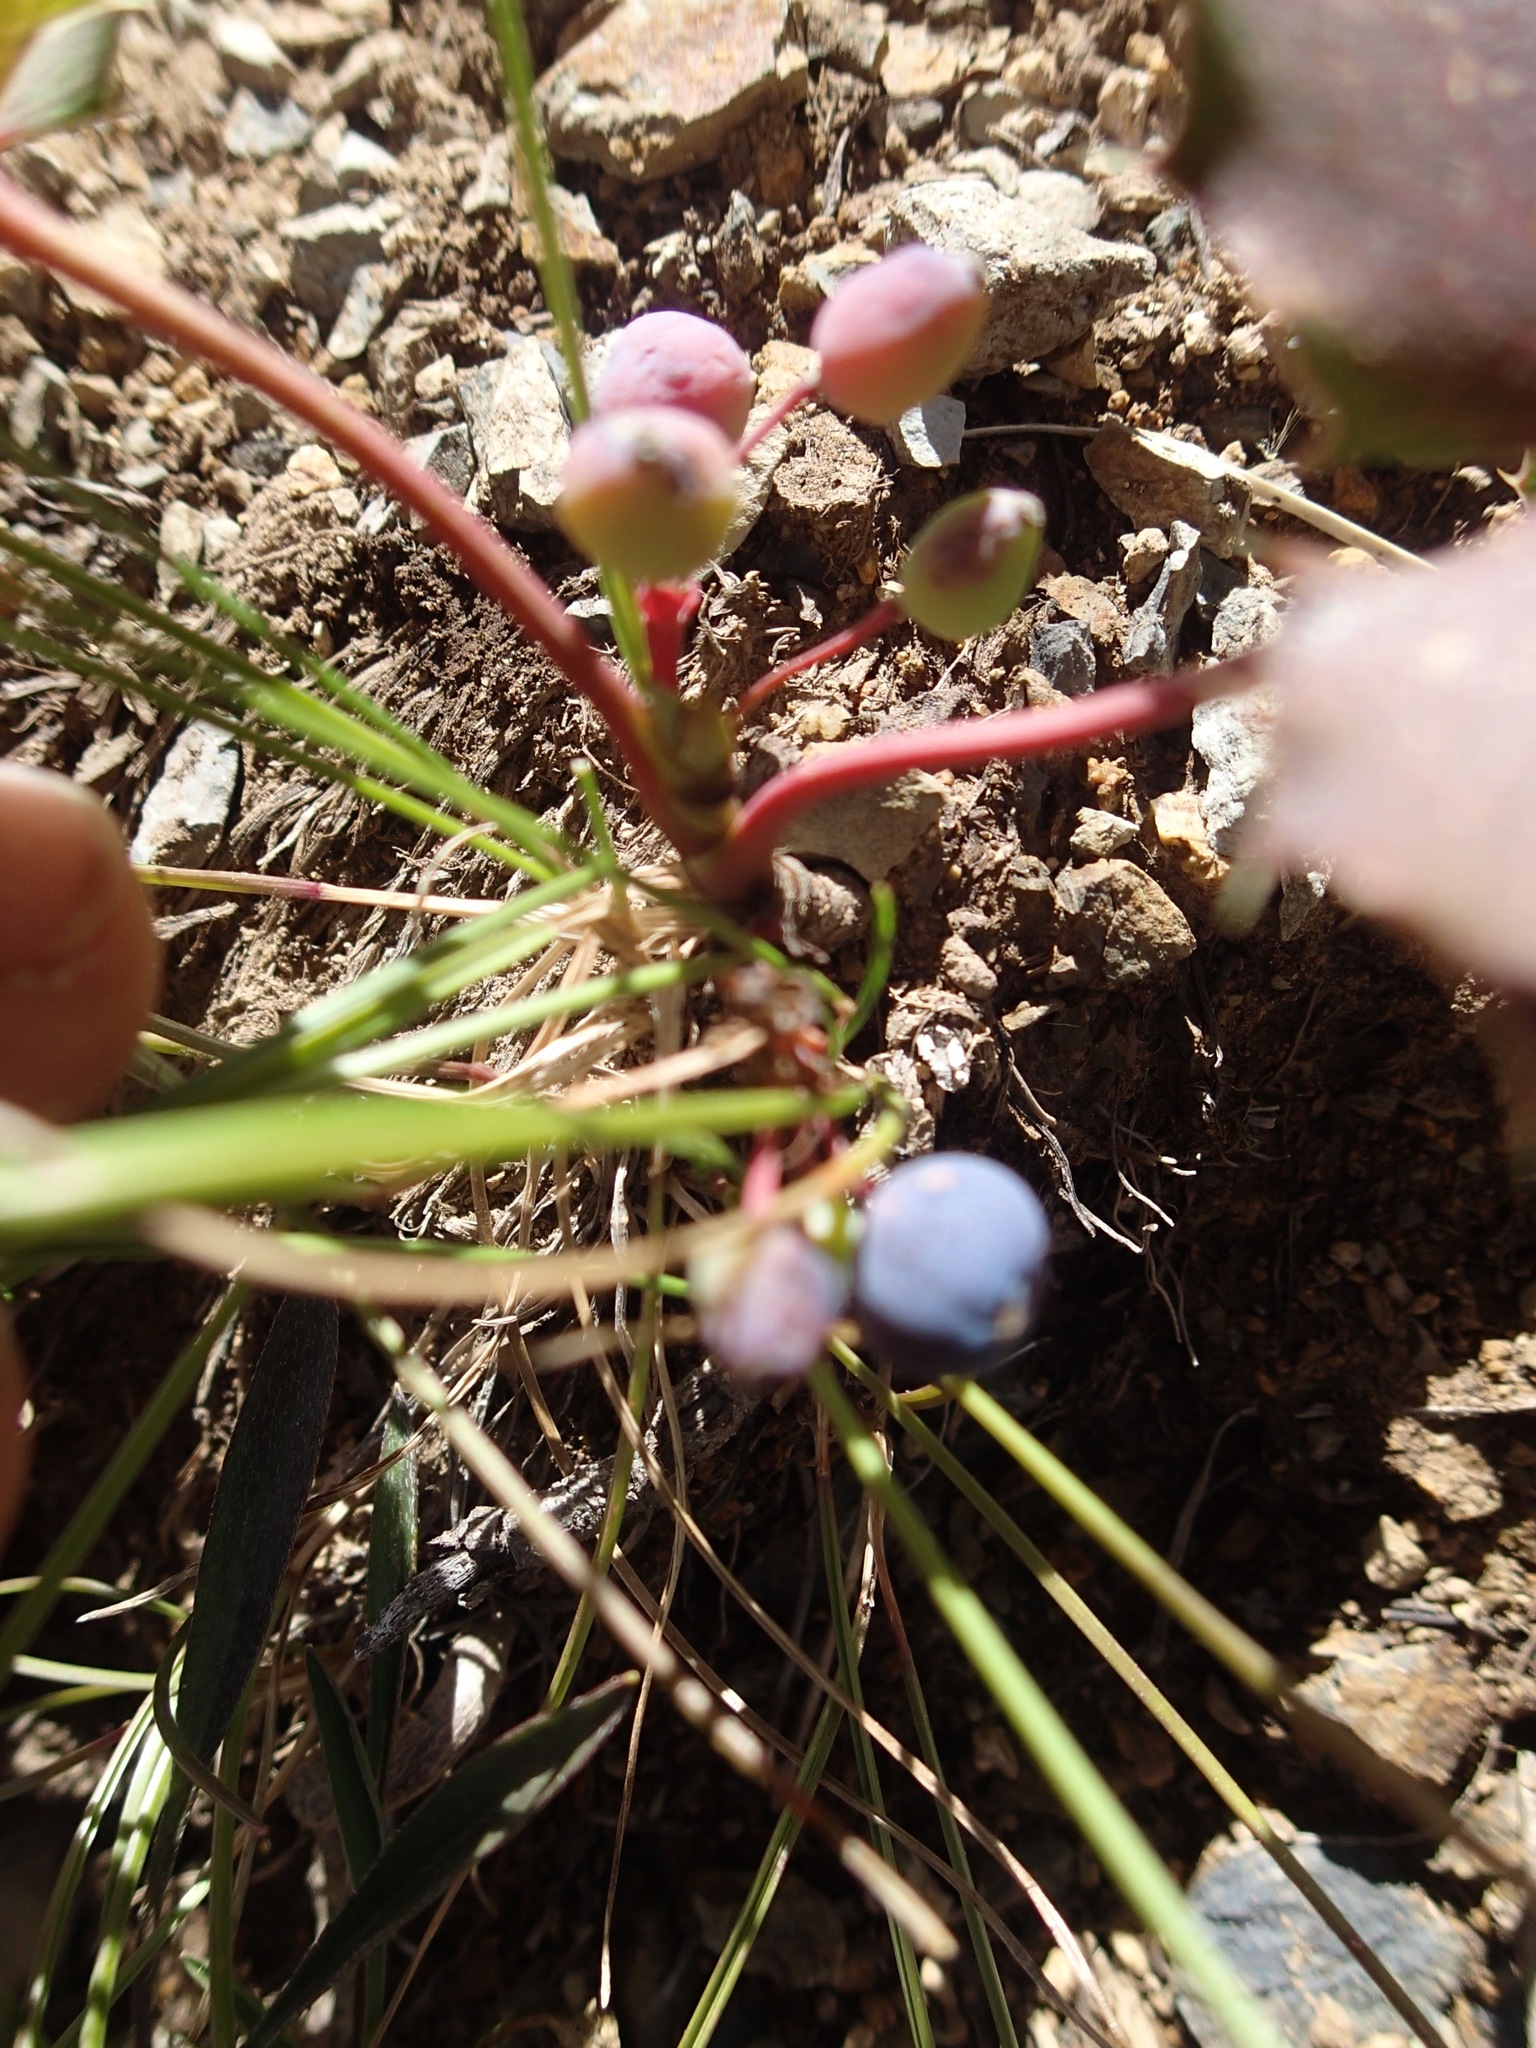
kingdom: Plantae
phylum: Tracheophyta
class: Magnoliopsida
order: Ranunculales
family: Berberidaceae
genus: Mahonia
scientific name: Mahonia repens
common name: Creeping oregon-grape
